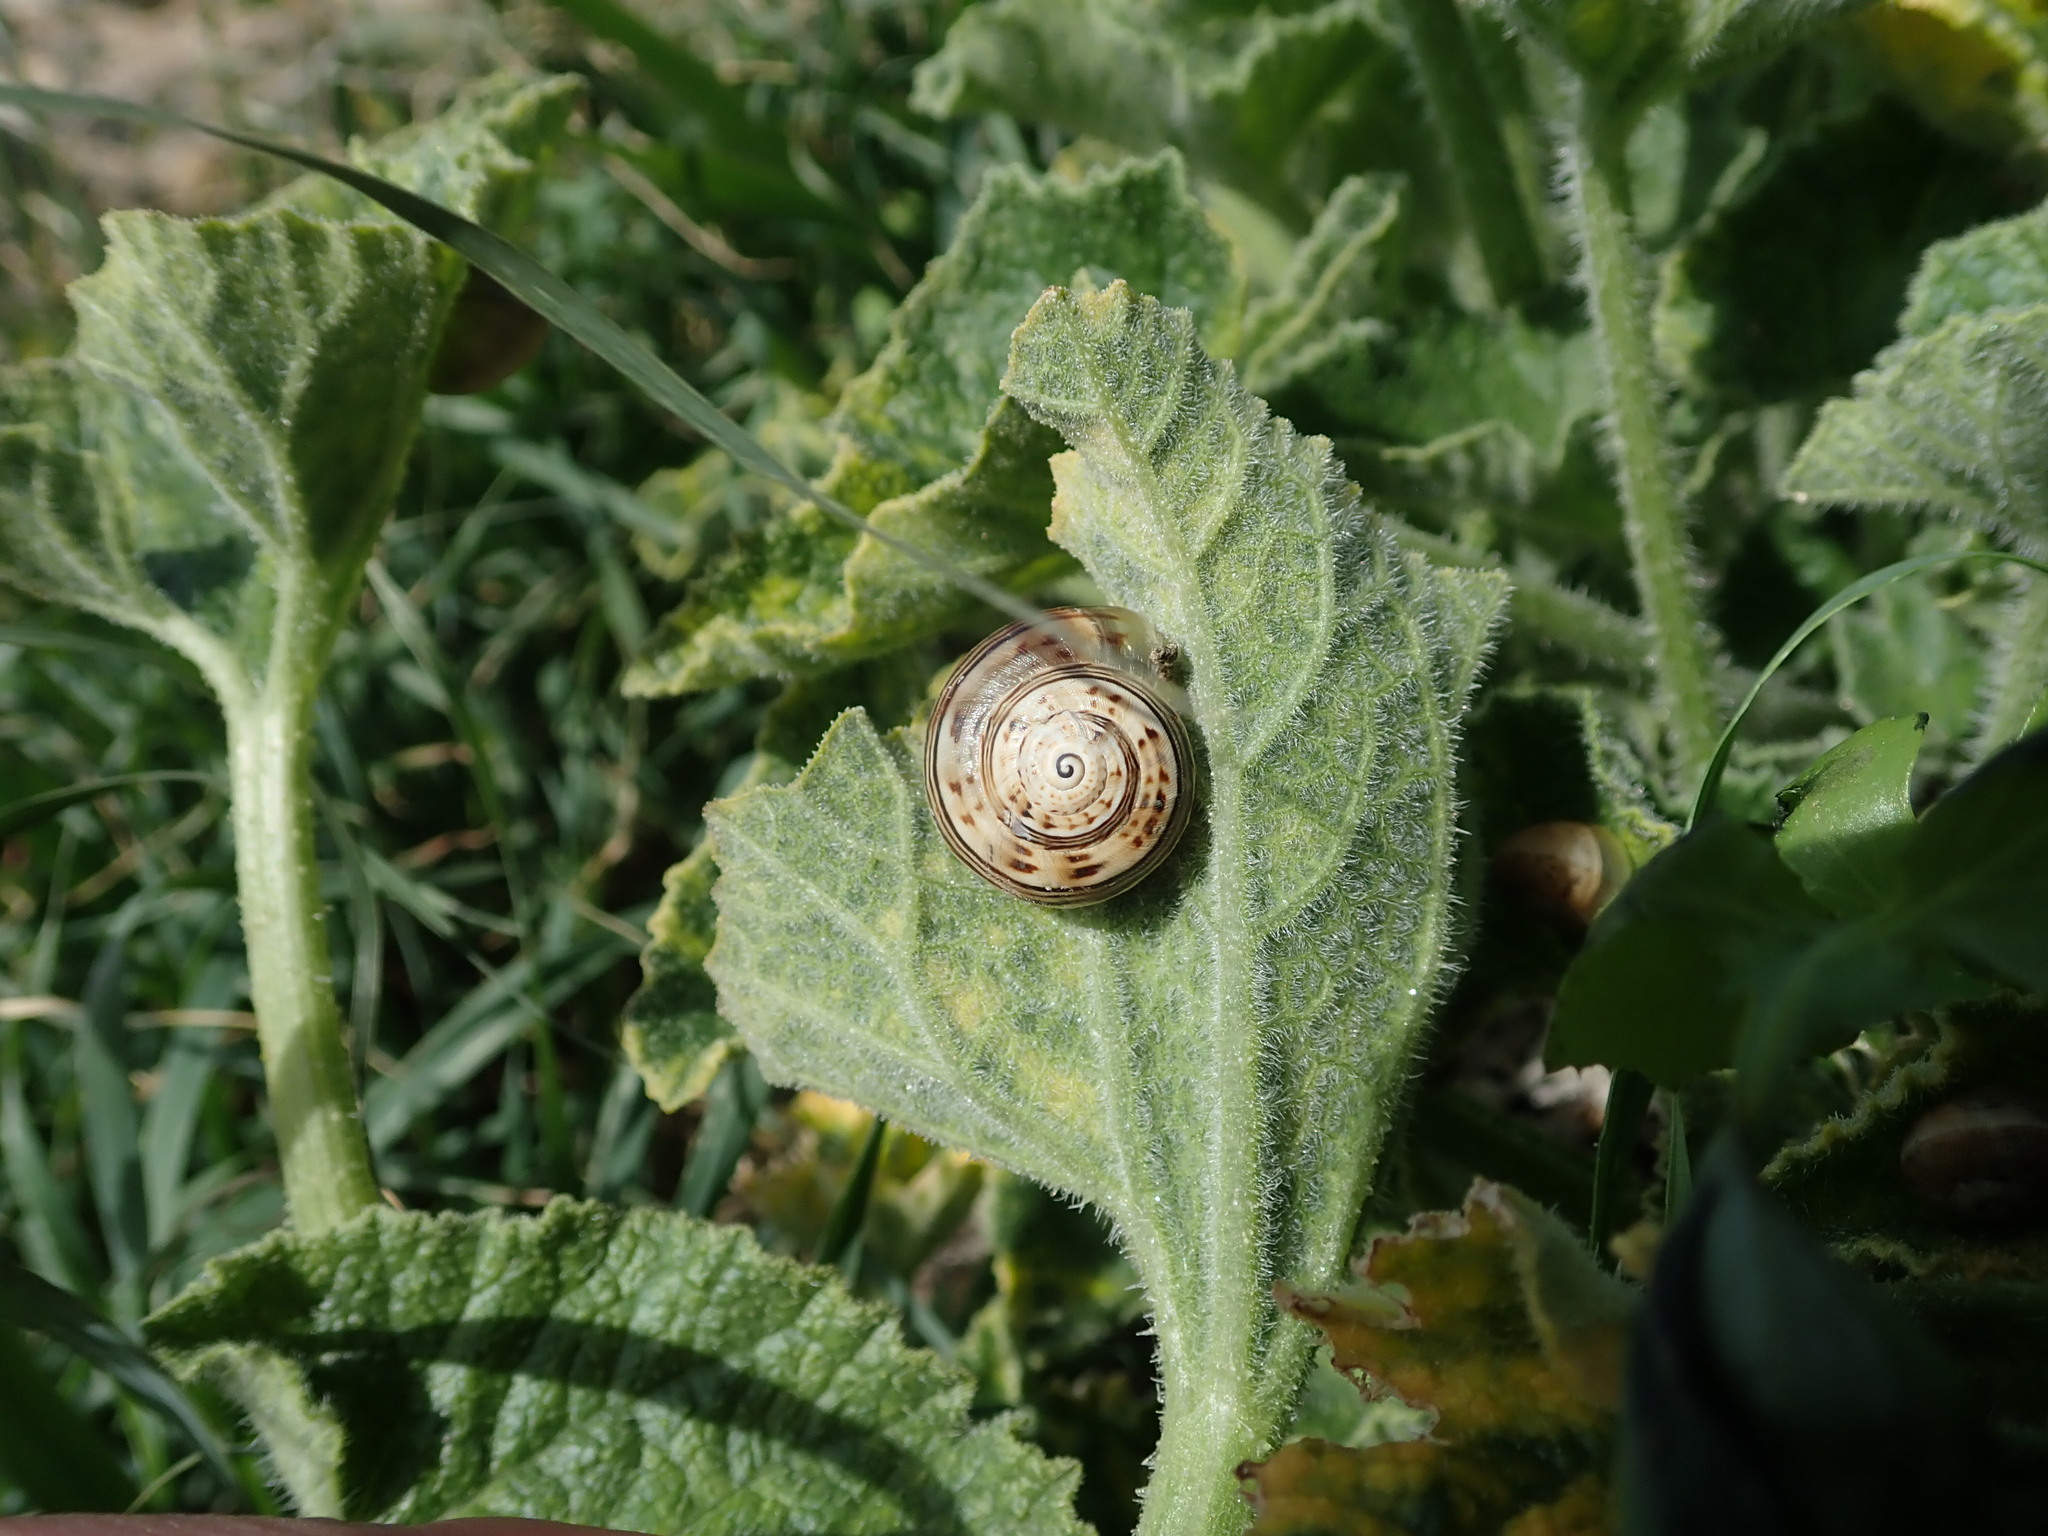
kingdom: Animalia
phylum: Mollusca
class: Gastropoda
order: Stylommatophora
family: Helicidae
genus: Theba
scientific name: Theba pisana
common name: White snail
